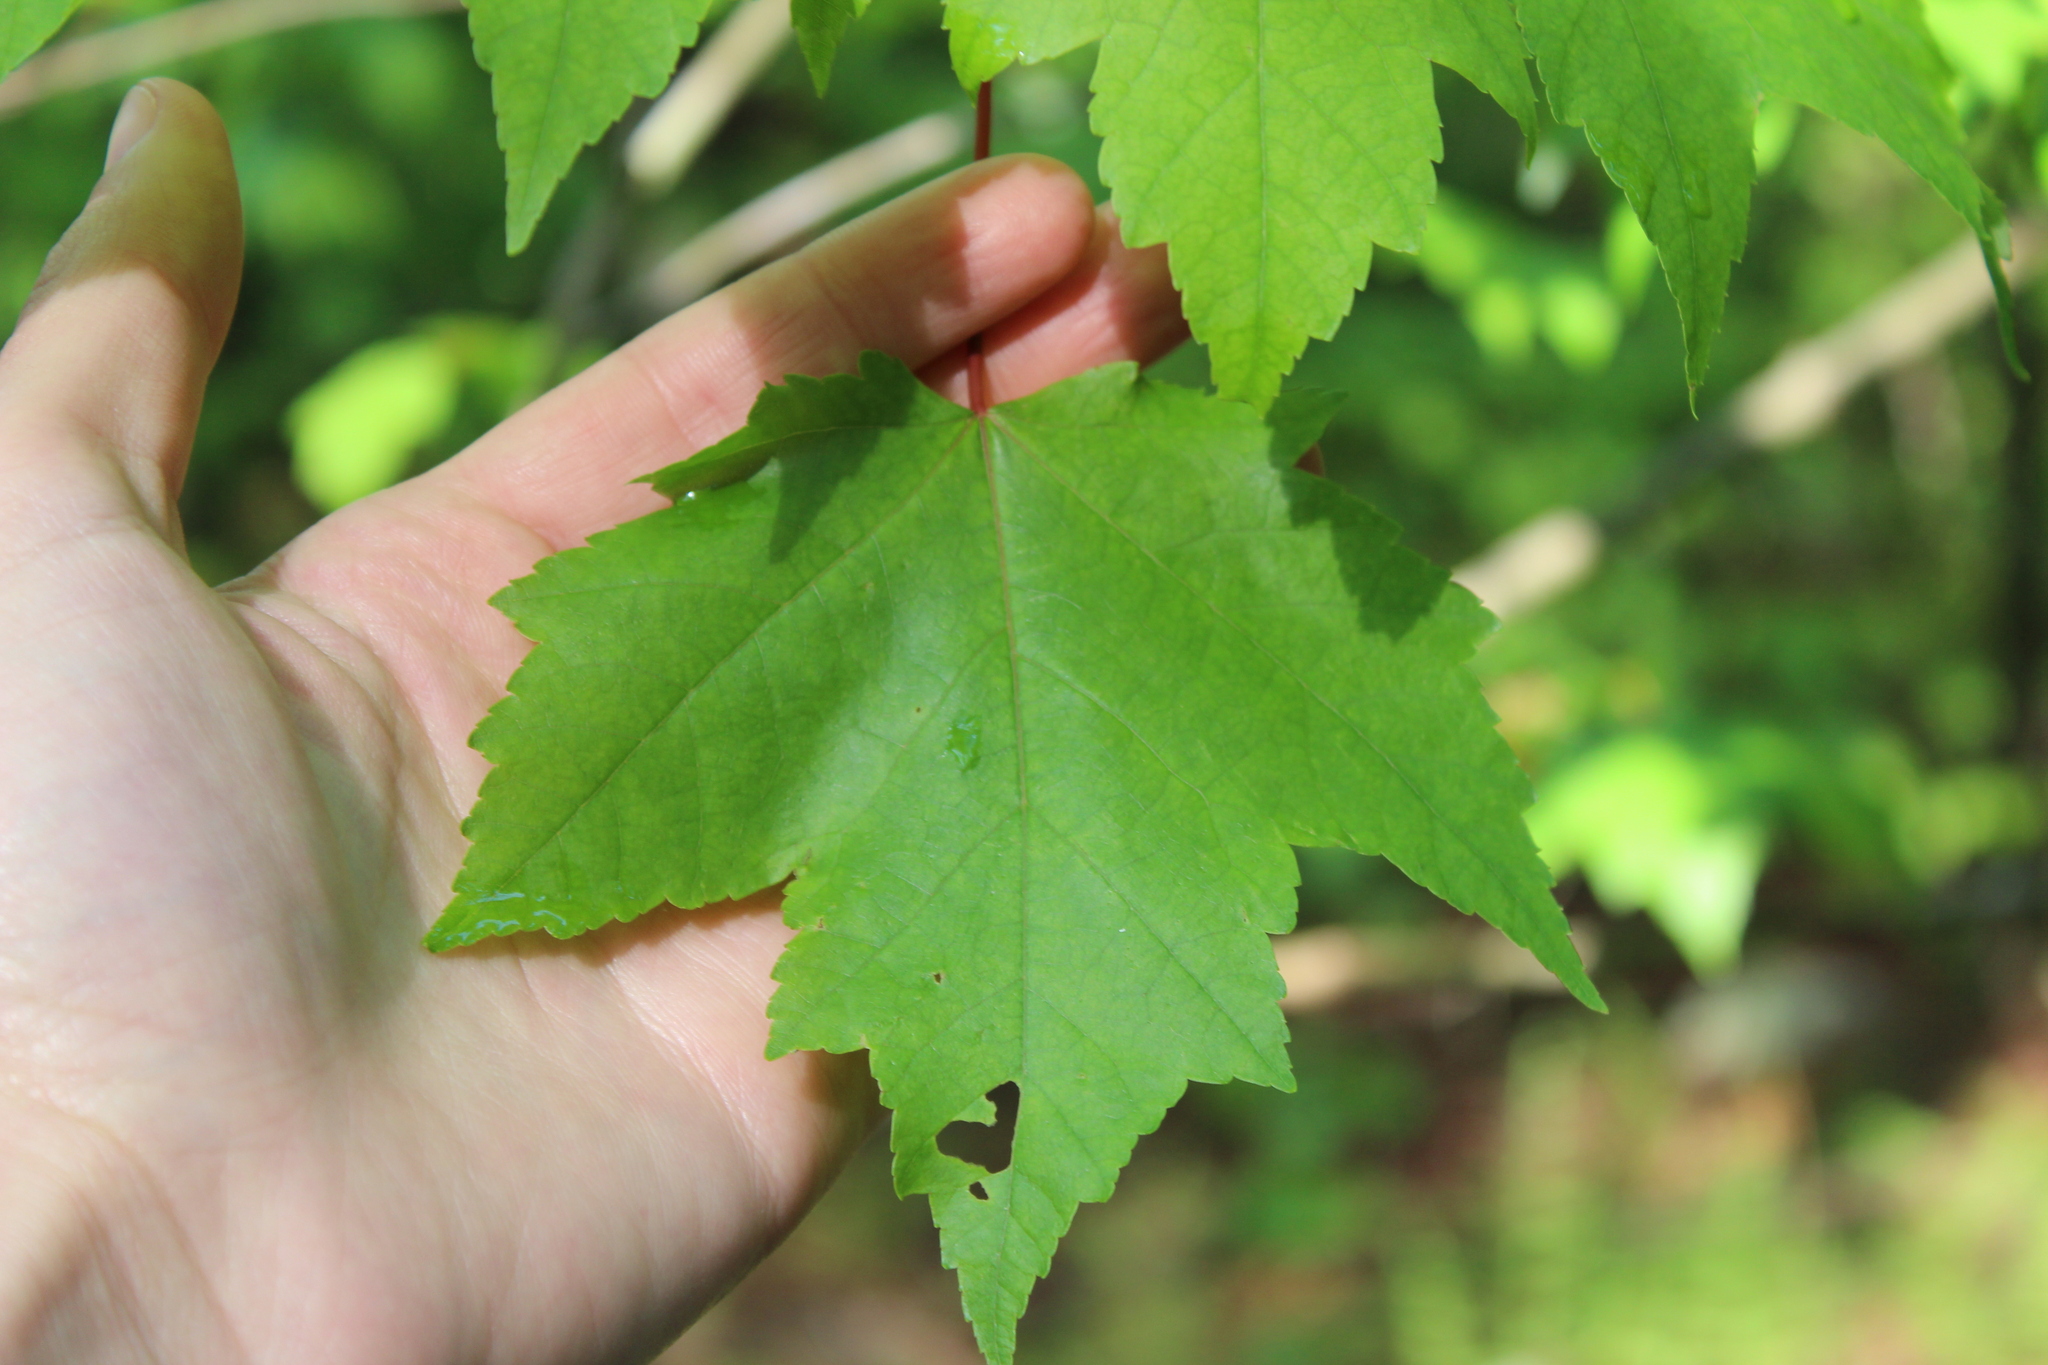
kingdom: Plantae
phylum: Tracheophyta
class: Magnoliopsida
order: Sapindales
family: Sapindaceae
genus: Acer
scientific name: Acer rubrum
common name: Red maple
